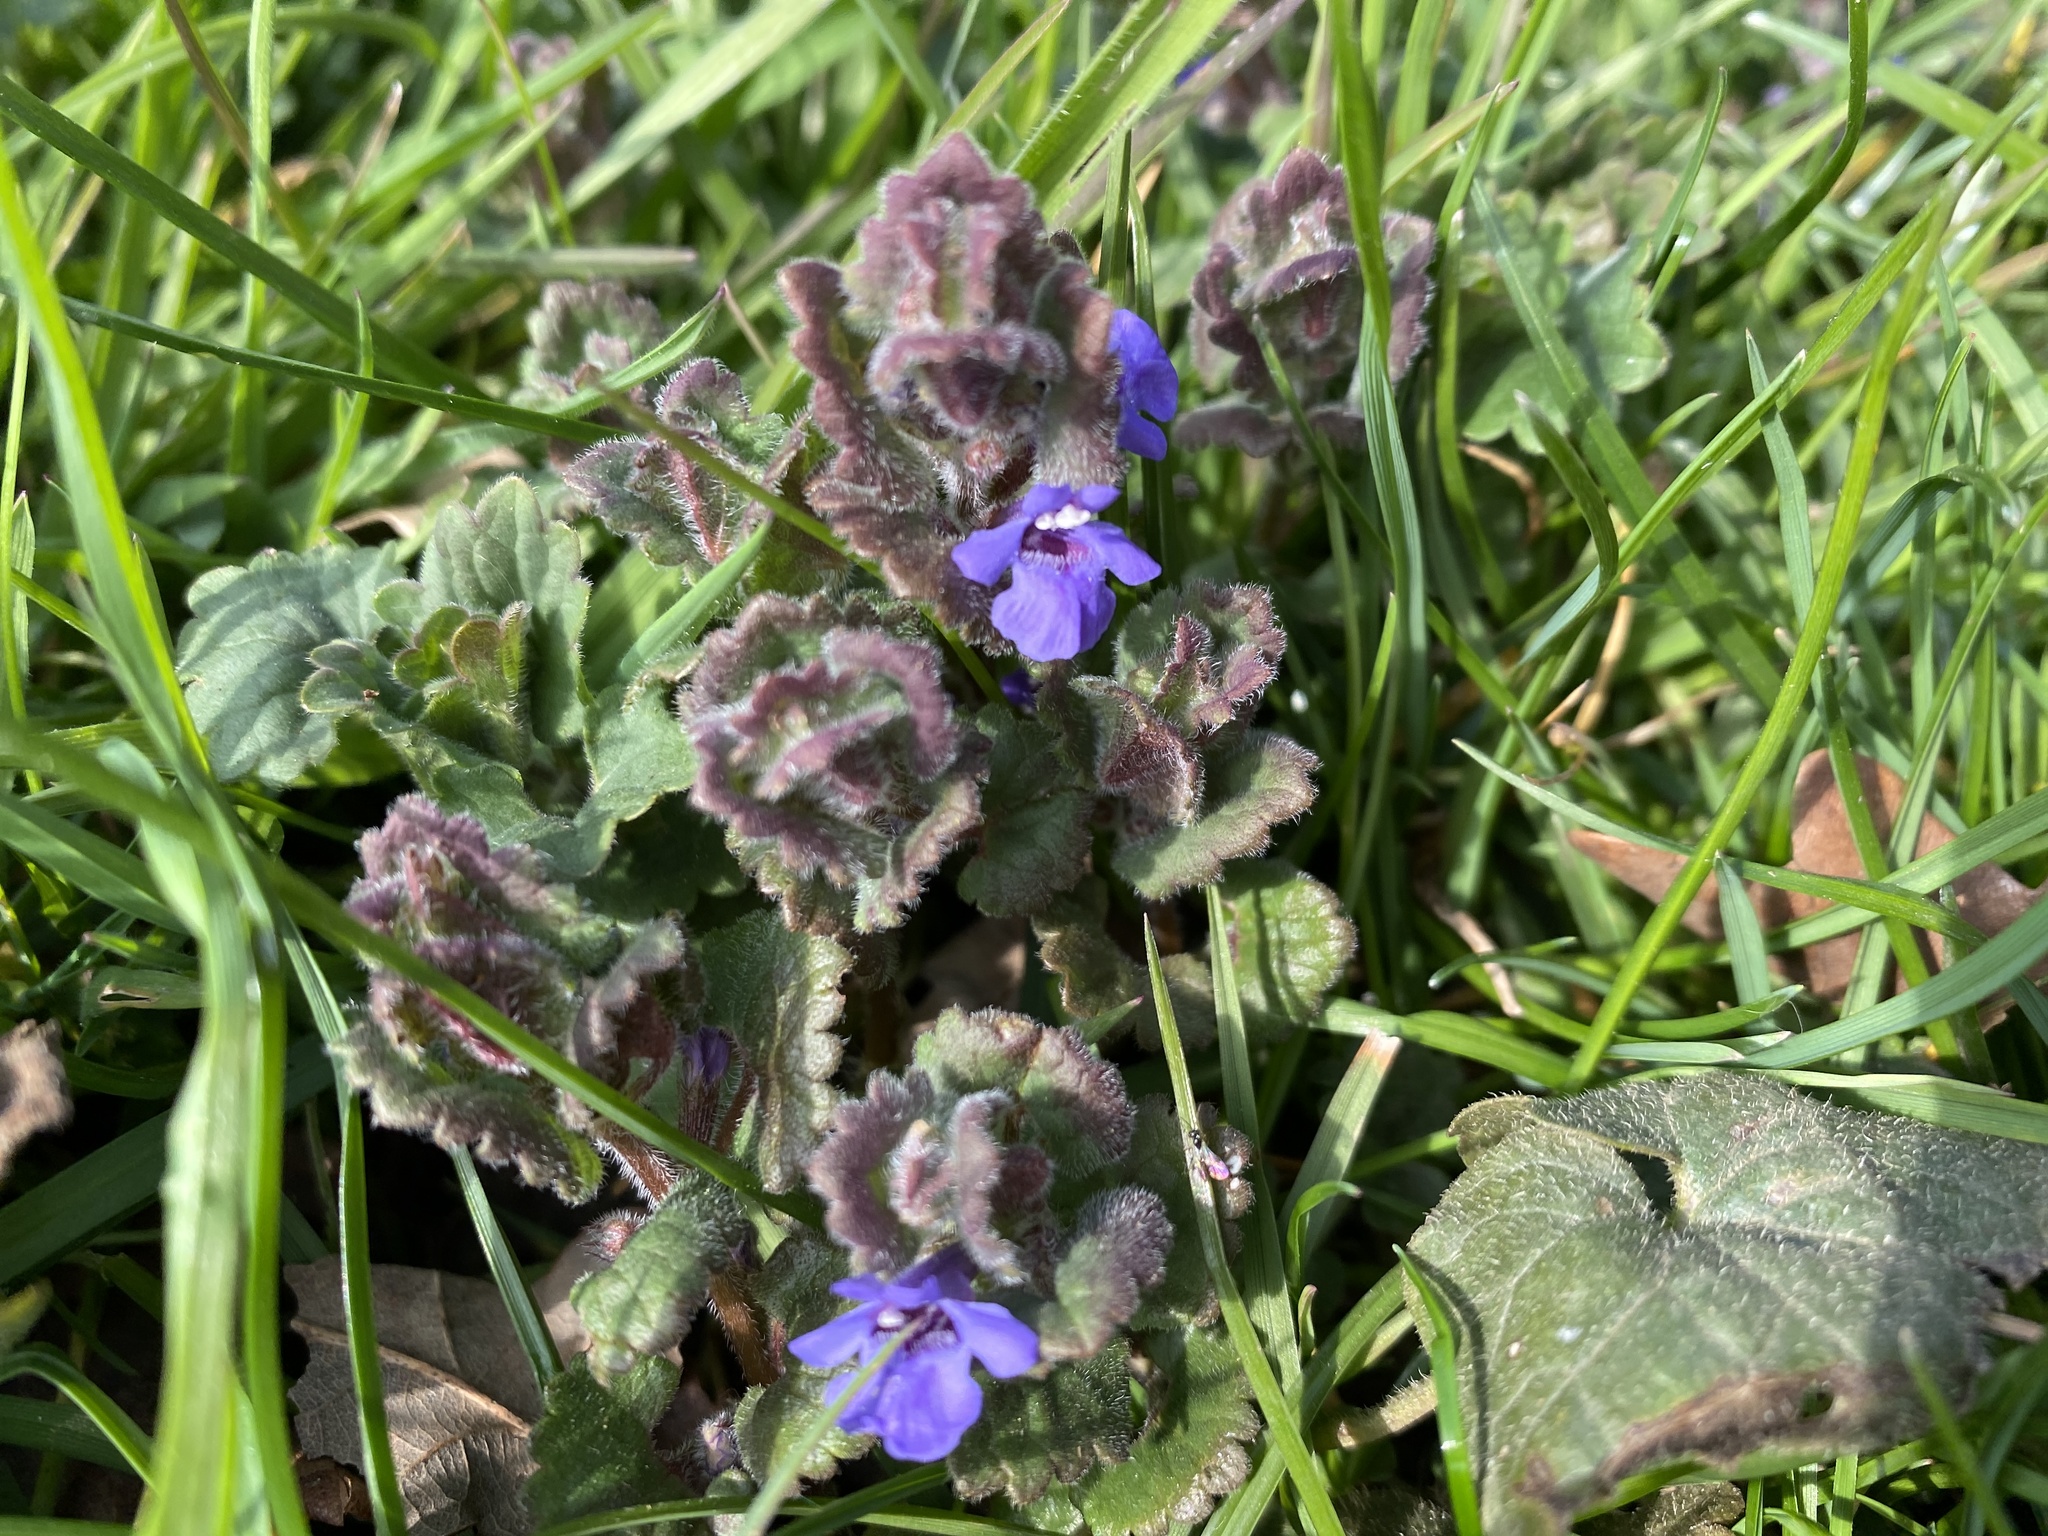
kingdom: Plantae
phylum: Tracheophyta
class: Magnoliopsida
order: Lamiales
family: Lamiaceae
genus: Glechoma
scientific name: Glechoma hederacea
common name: Ground ivy
